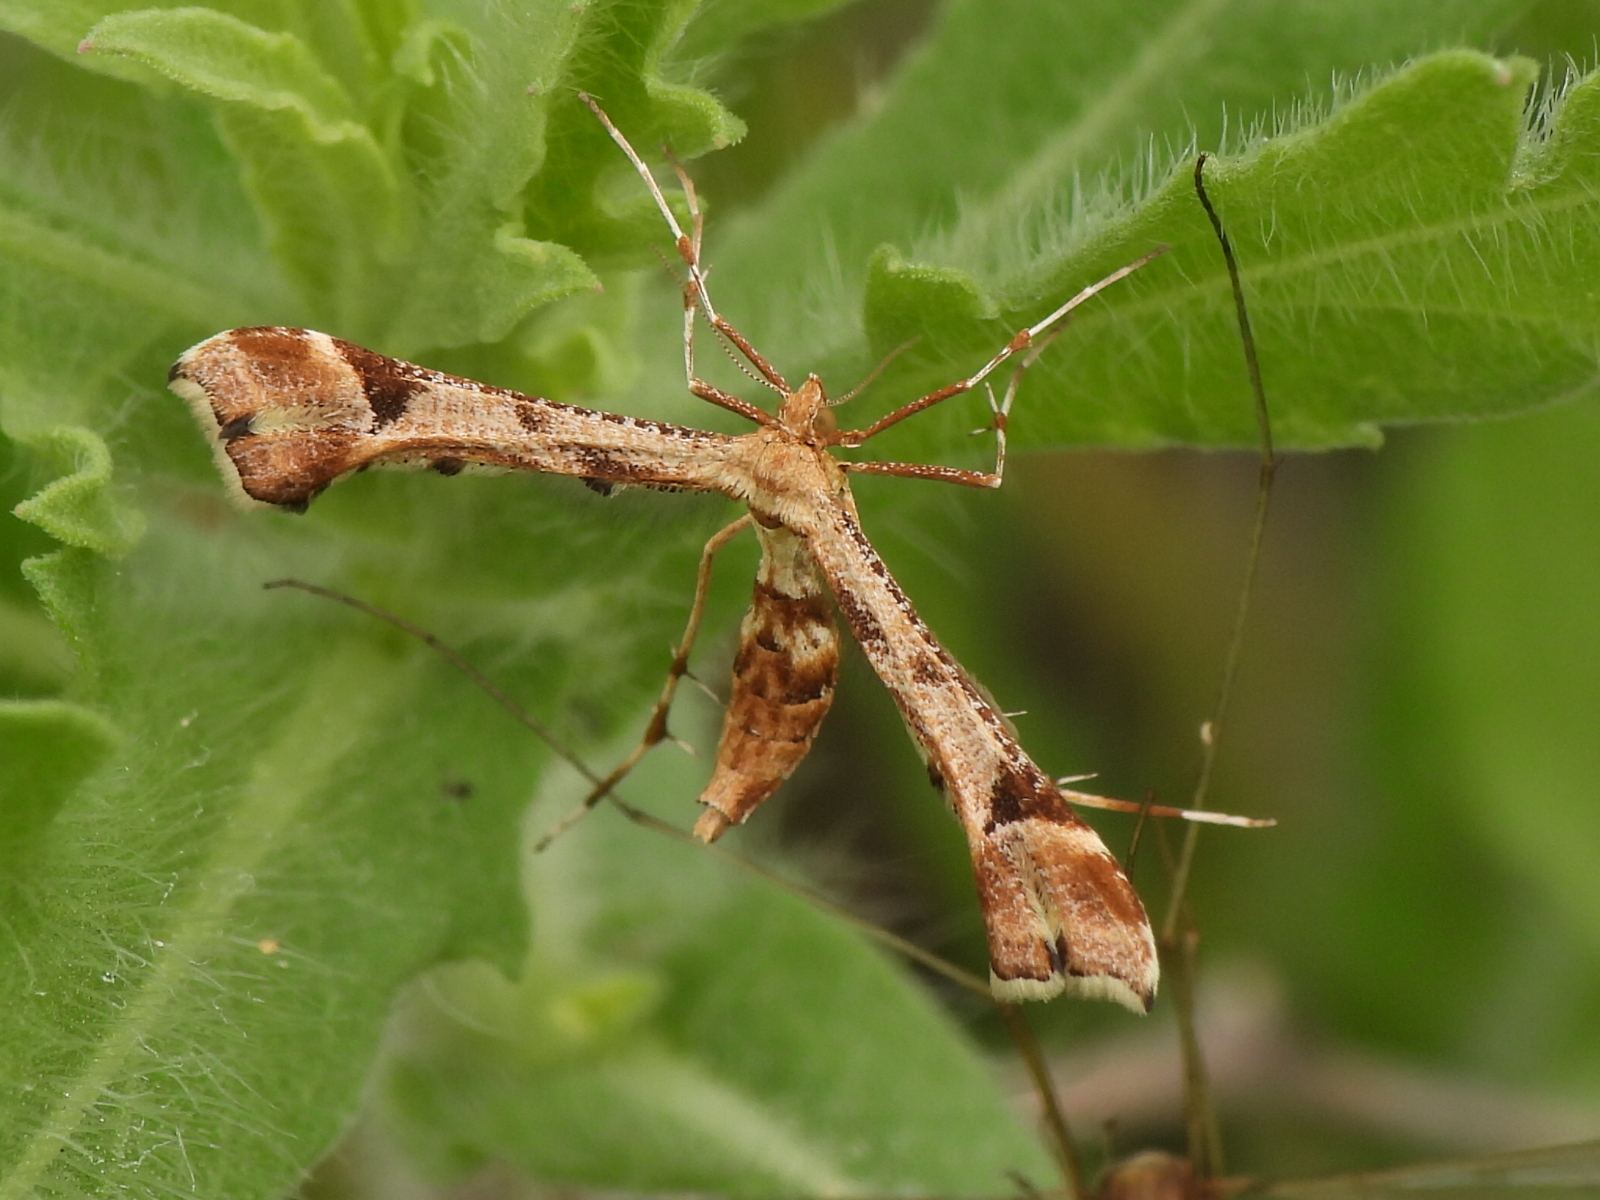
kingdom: Animalia
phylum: Arthropoda
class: Insecta
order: Lepidoptera
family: Pterophoridae
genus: Platyptilia
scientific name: Platyptilia carduidactylus
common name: Artichoke plume moth
